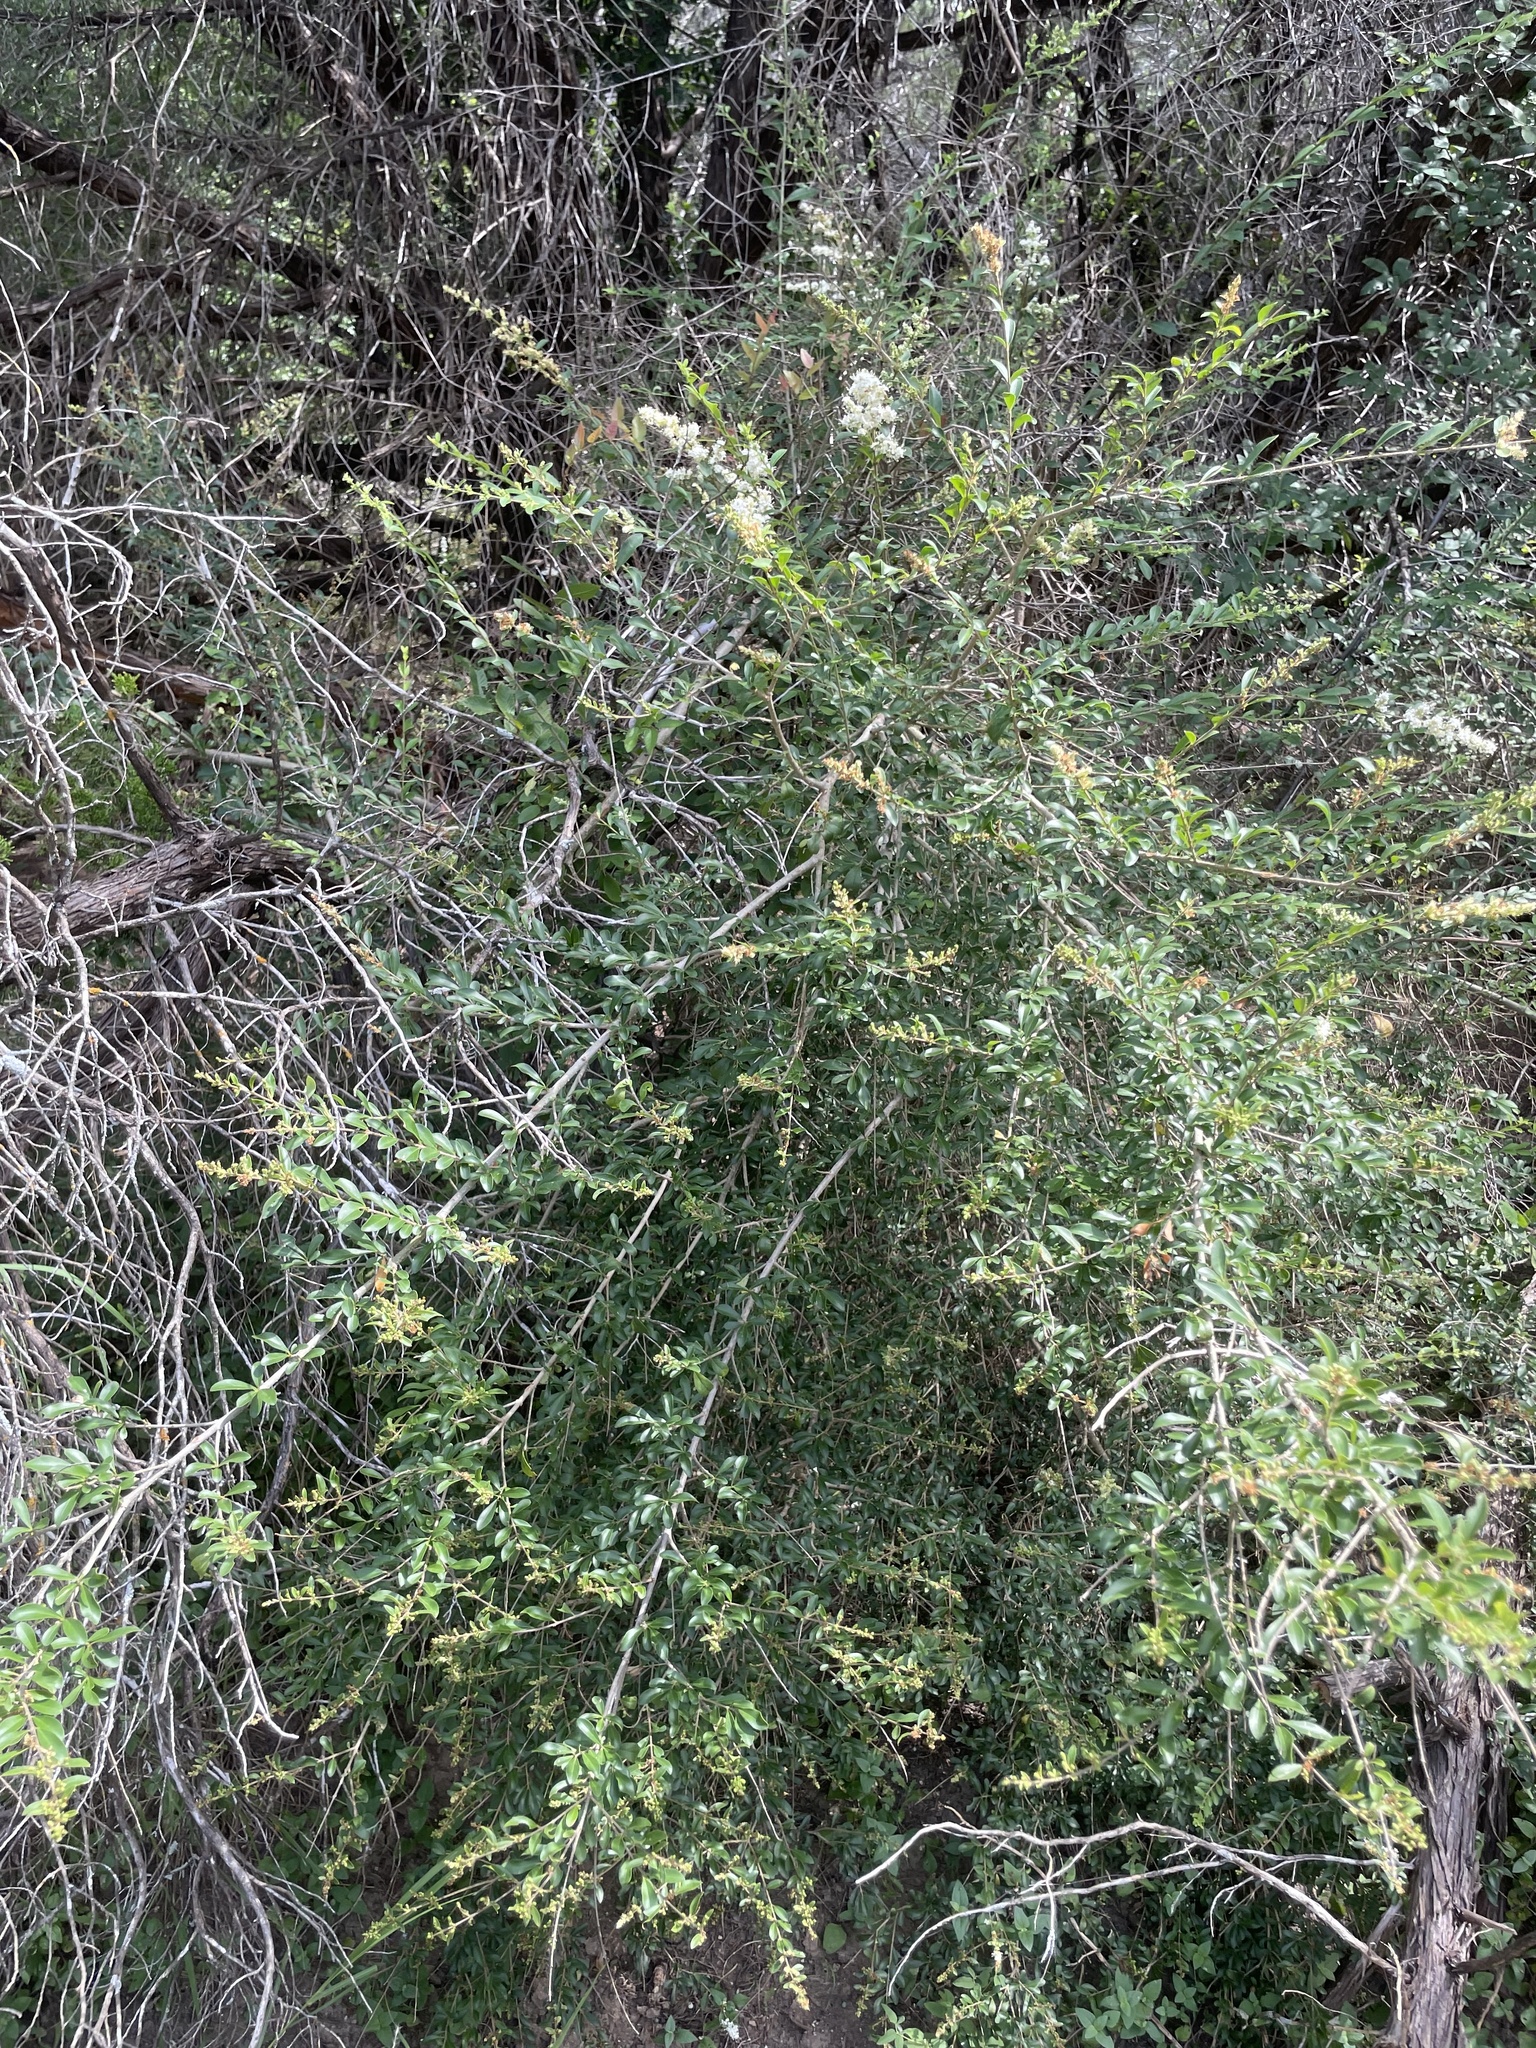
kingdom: Plantae
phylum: Tracheophyta
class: Magnoliopsida
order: Lamiales
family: Oleaceae
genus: Ligustrum
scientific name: Ligustrum quihoui
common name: Waxyleaf privet
